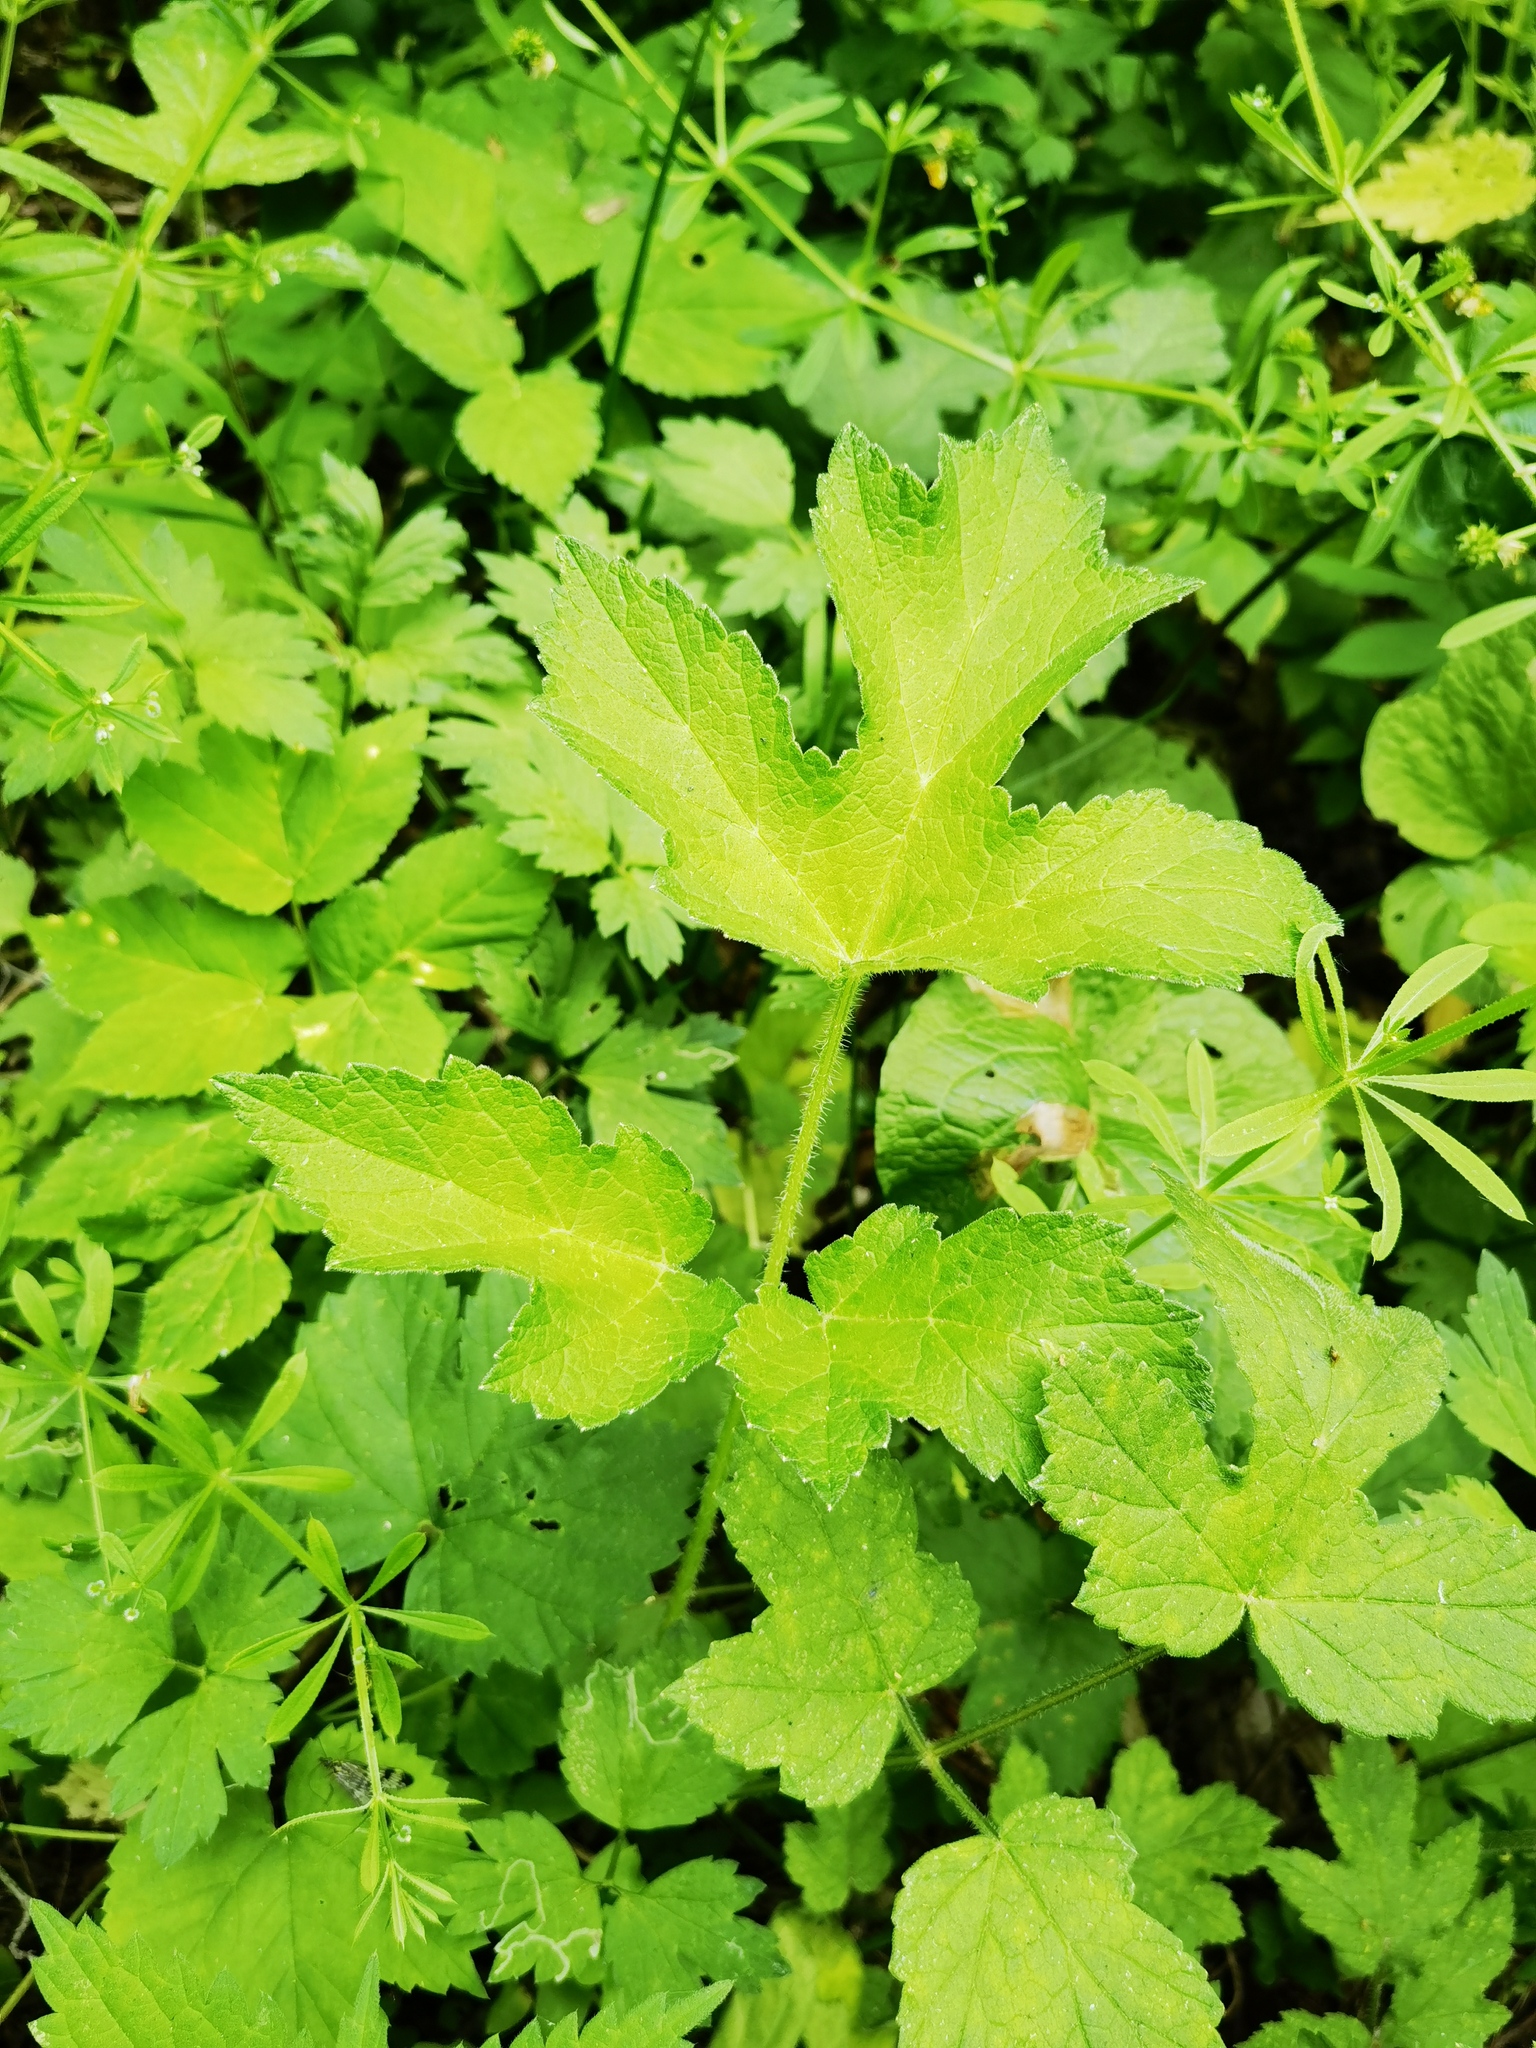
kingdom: Plantae
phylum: Tracheophyta
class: Magnoliopsida
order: Apiales
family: Apiaceae
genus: Heracleum
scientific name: Heracleum sphondylium
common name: Hogweed
